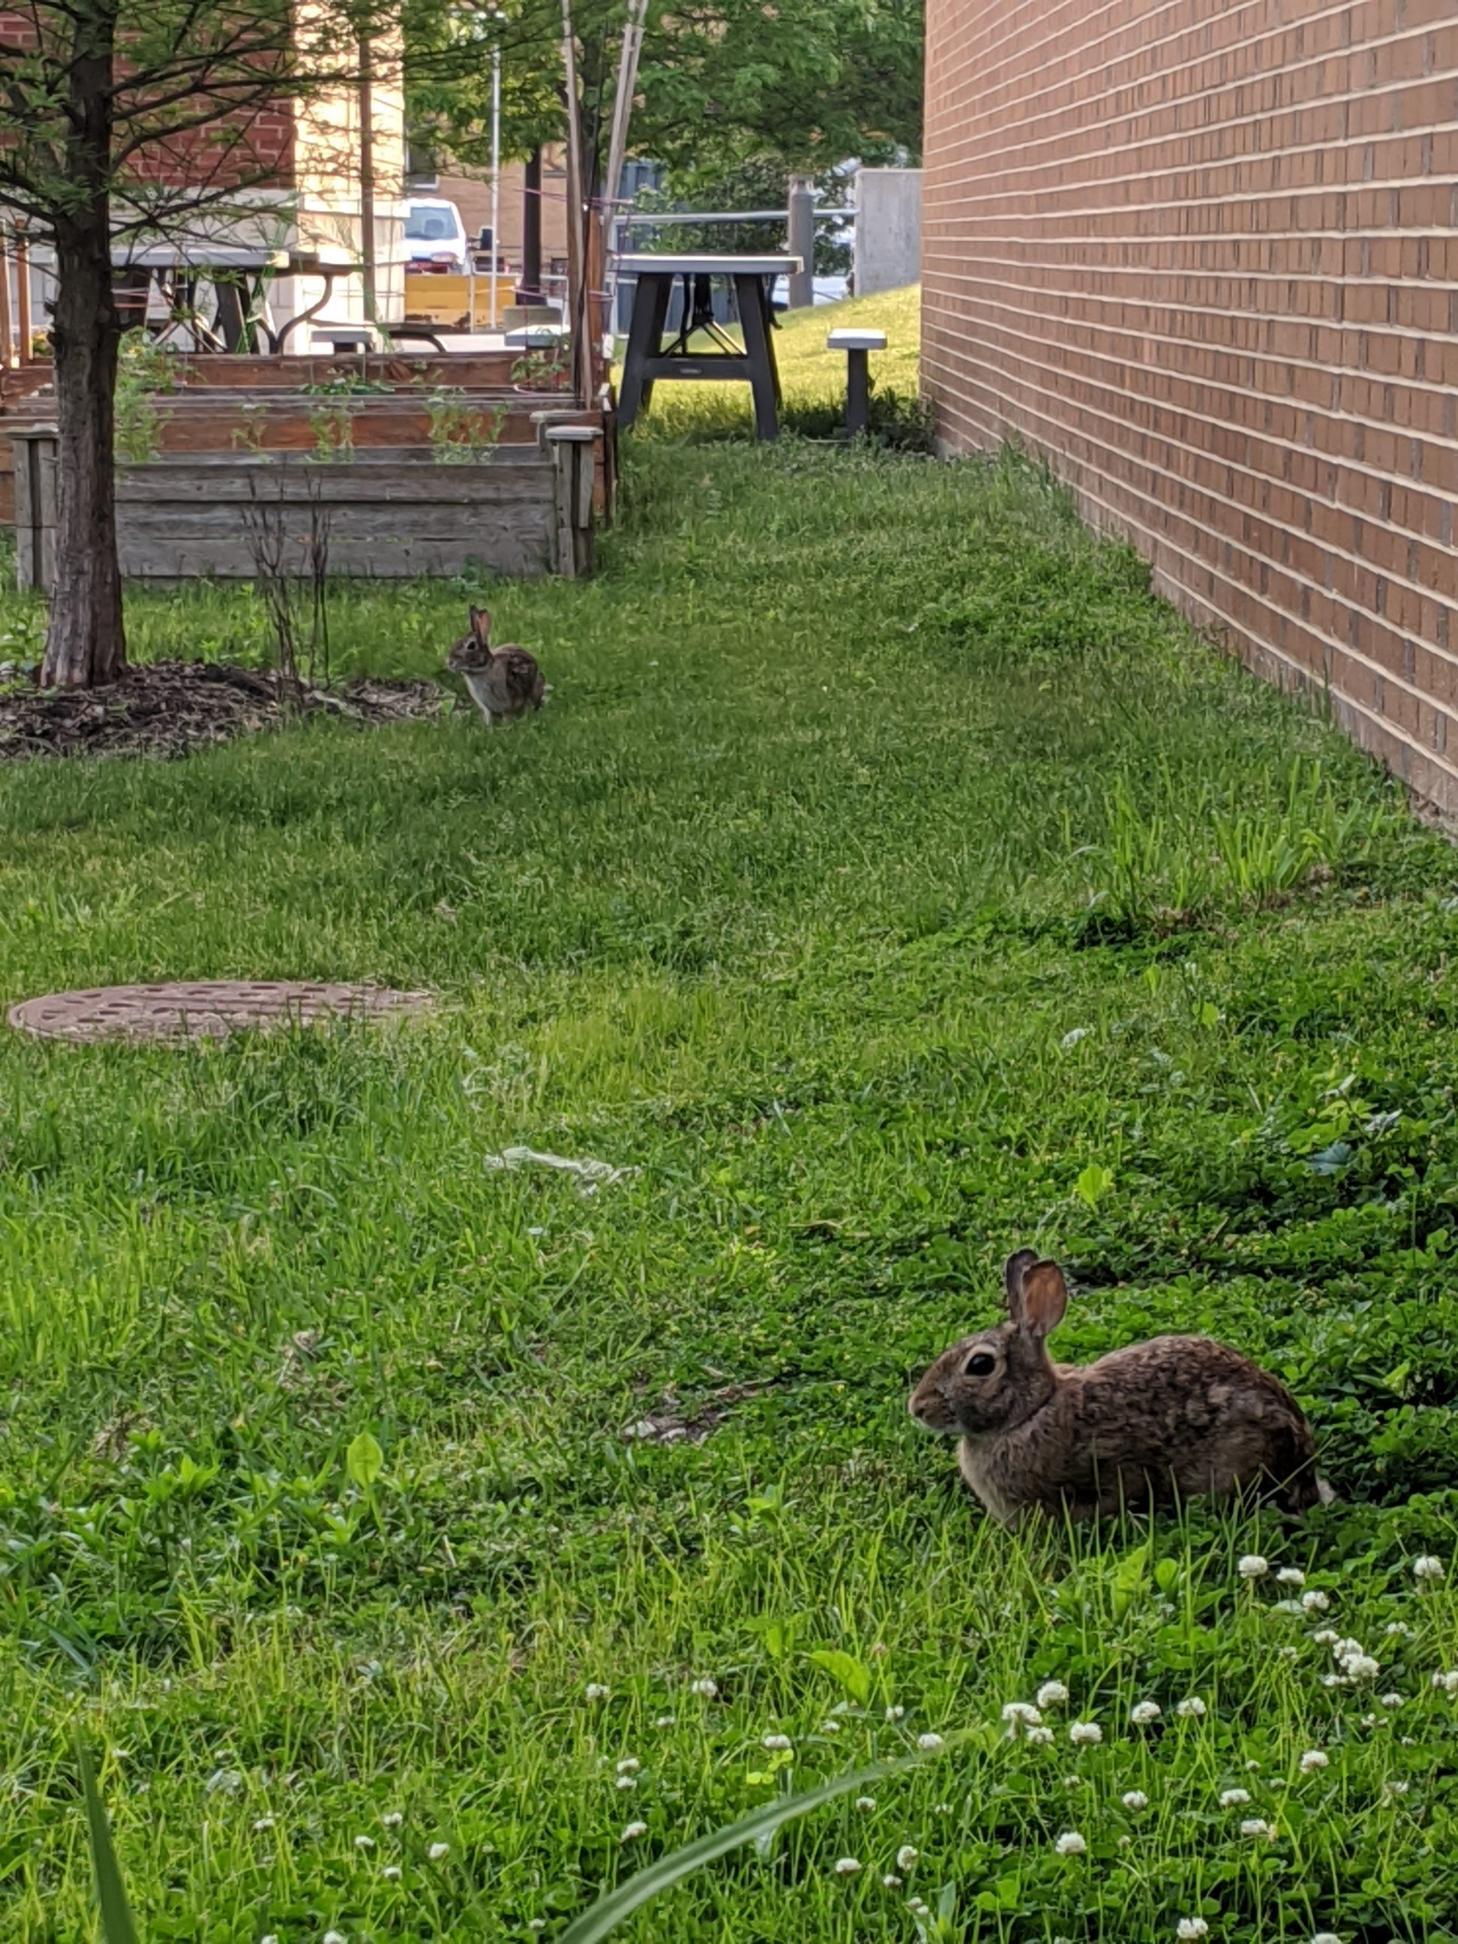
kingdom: Animalia
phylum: Chordata
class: Mammalia
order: Lagomorpha
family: Leporidae
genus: Sylvilagus
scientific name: Sylvilagus floridanus
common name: Eastern cottontail
